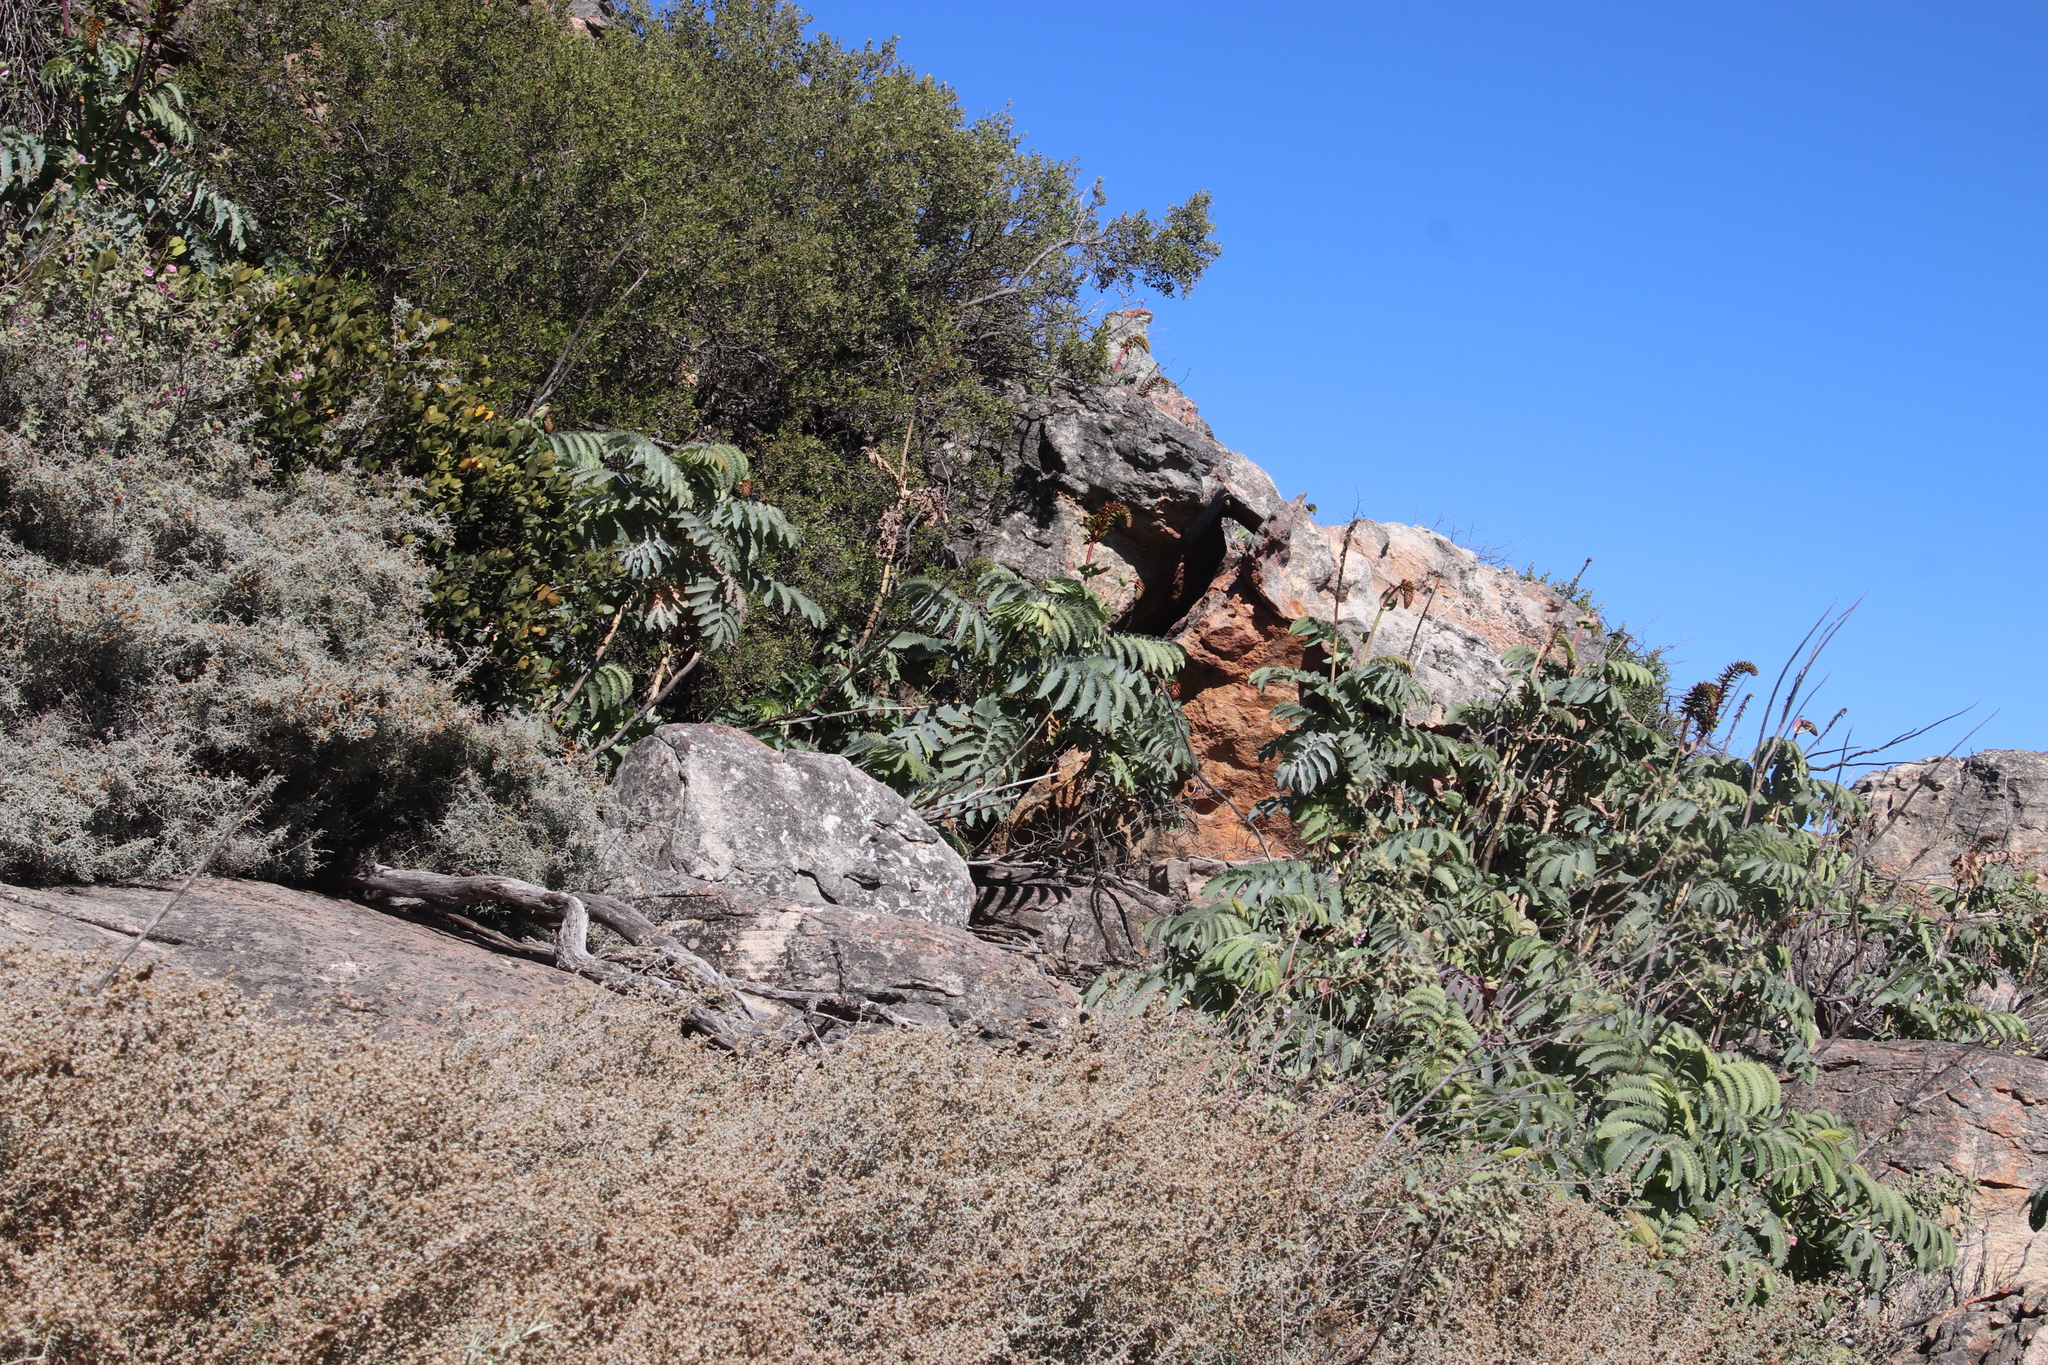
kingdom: Plantae
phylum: Tracheophyta
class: Magnoliopsida
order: Geraniales
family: Melianthaceae
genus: Melianthus
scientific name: Melianthus major
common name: Honey-flower
